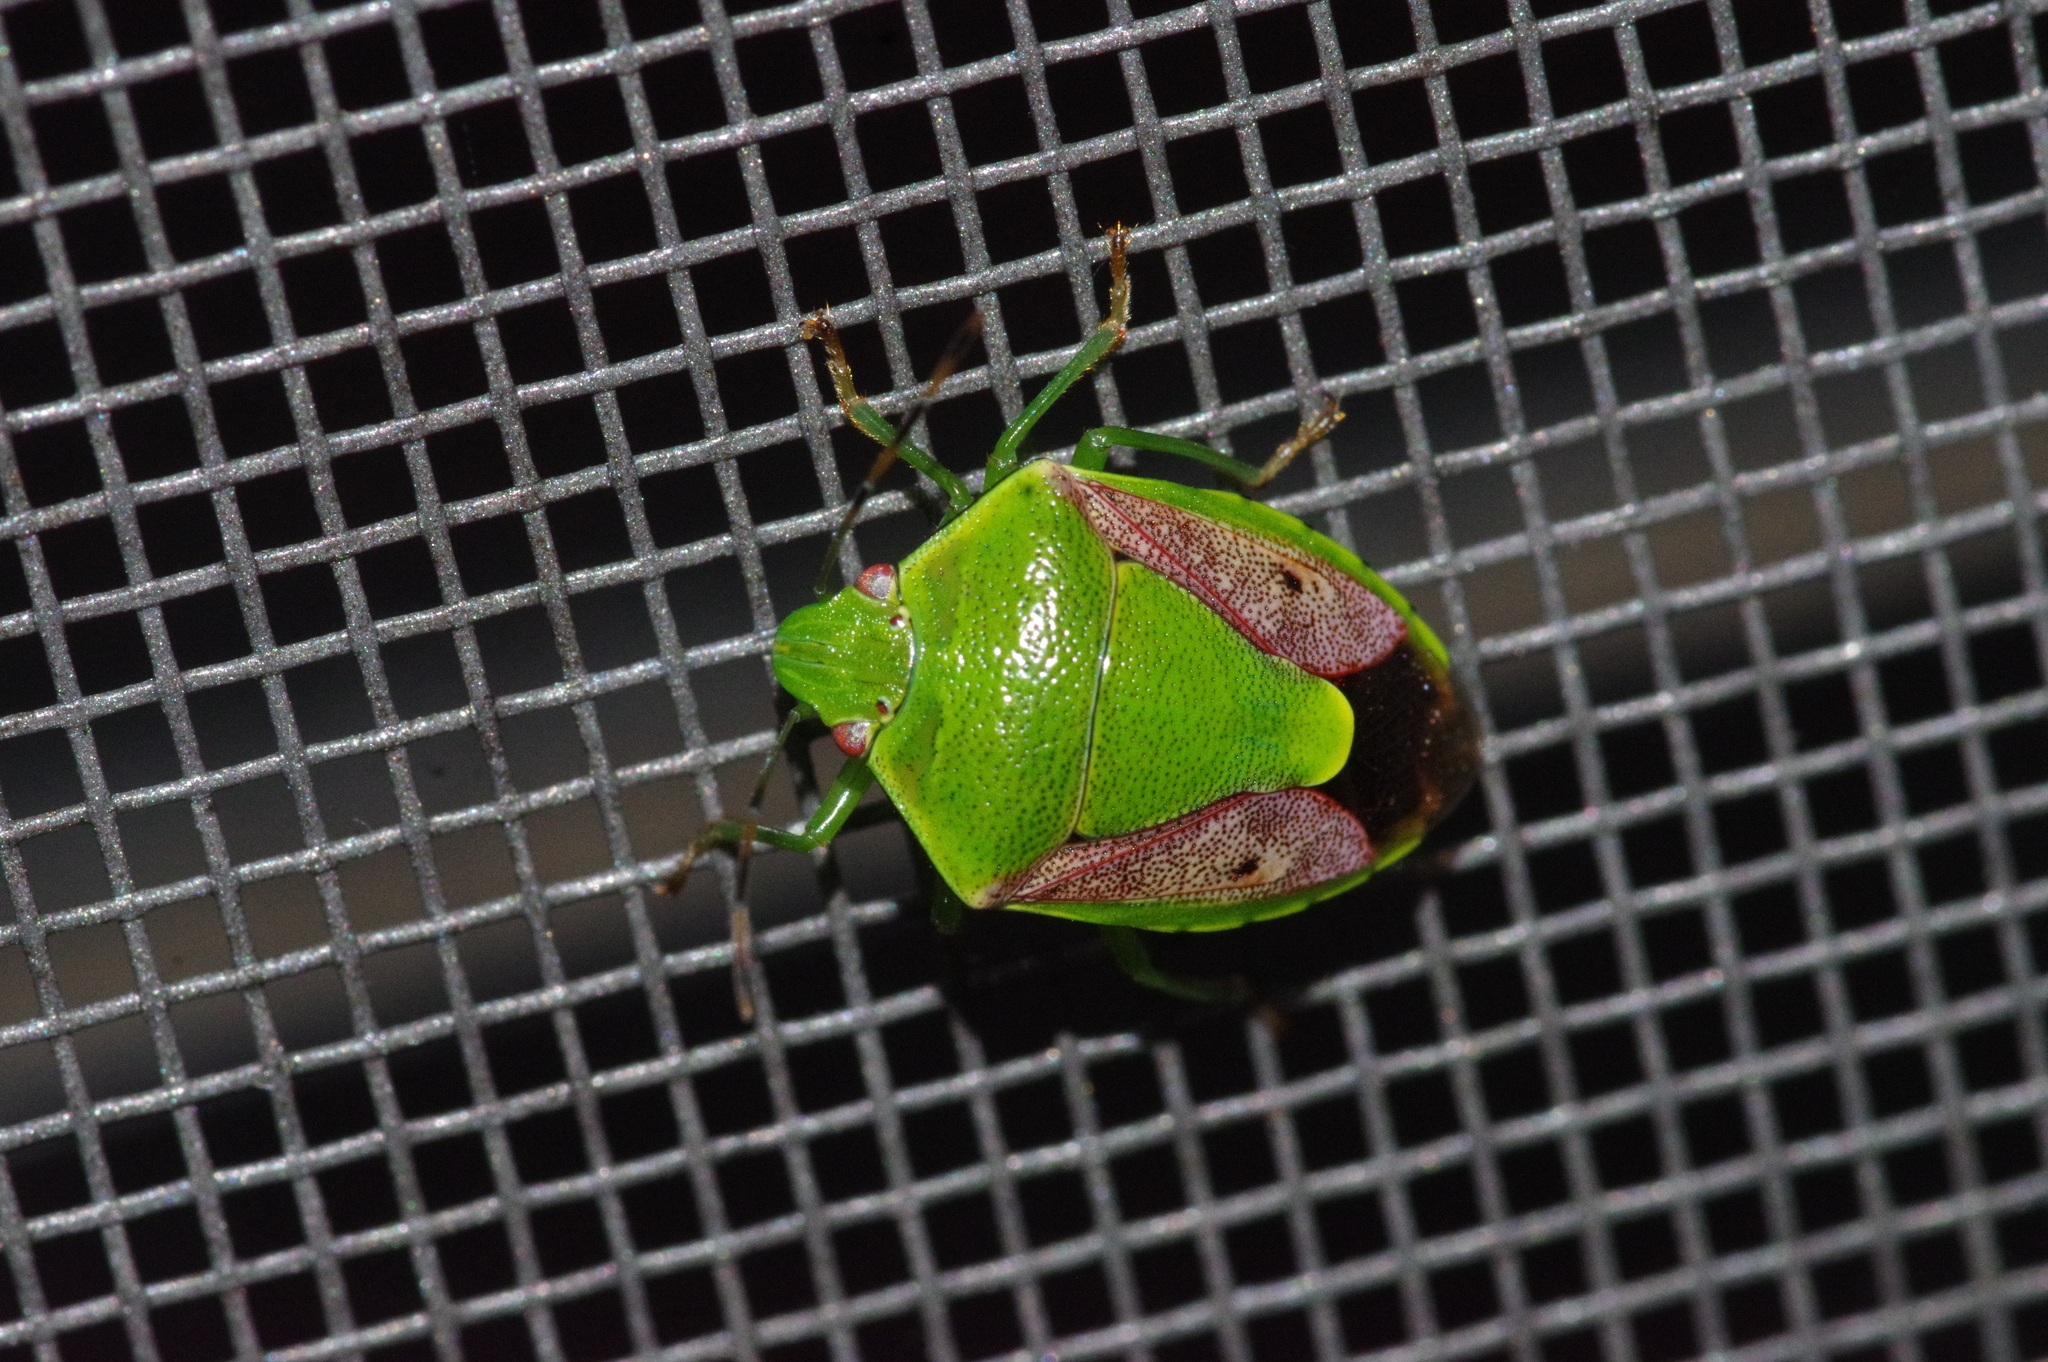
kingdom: Animalia
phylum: Arthropoda
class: Insecta
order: Hemiptera
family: Pentatomidae
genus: Plautia
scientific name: Plautia stali
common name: Stink bug
